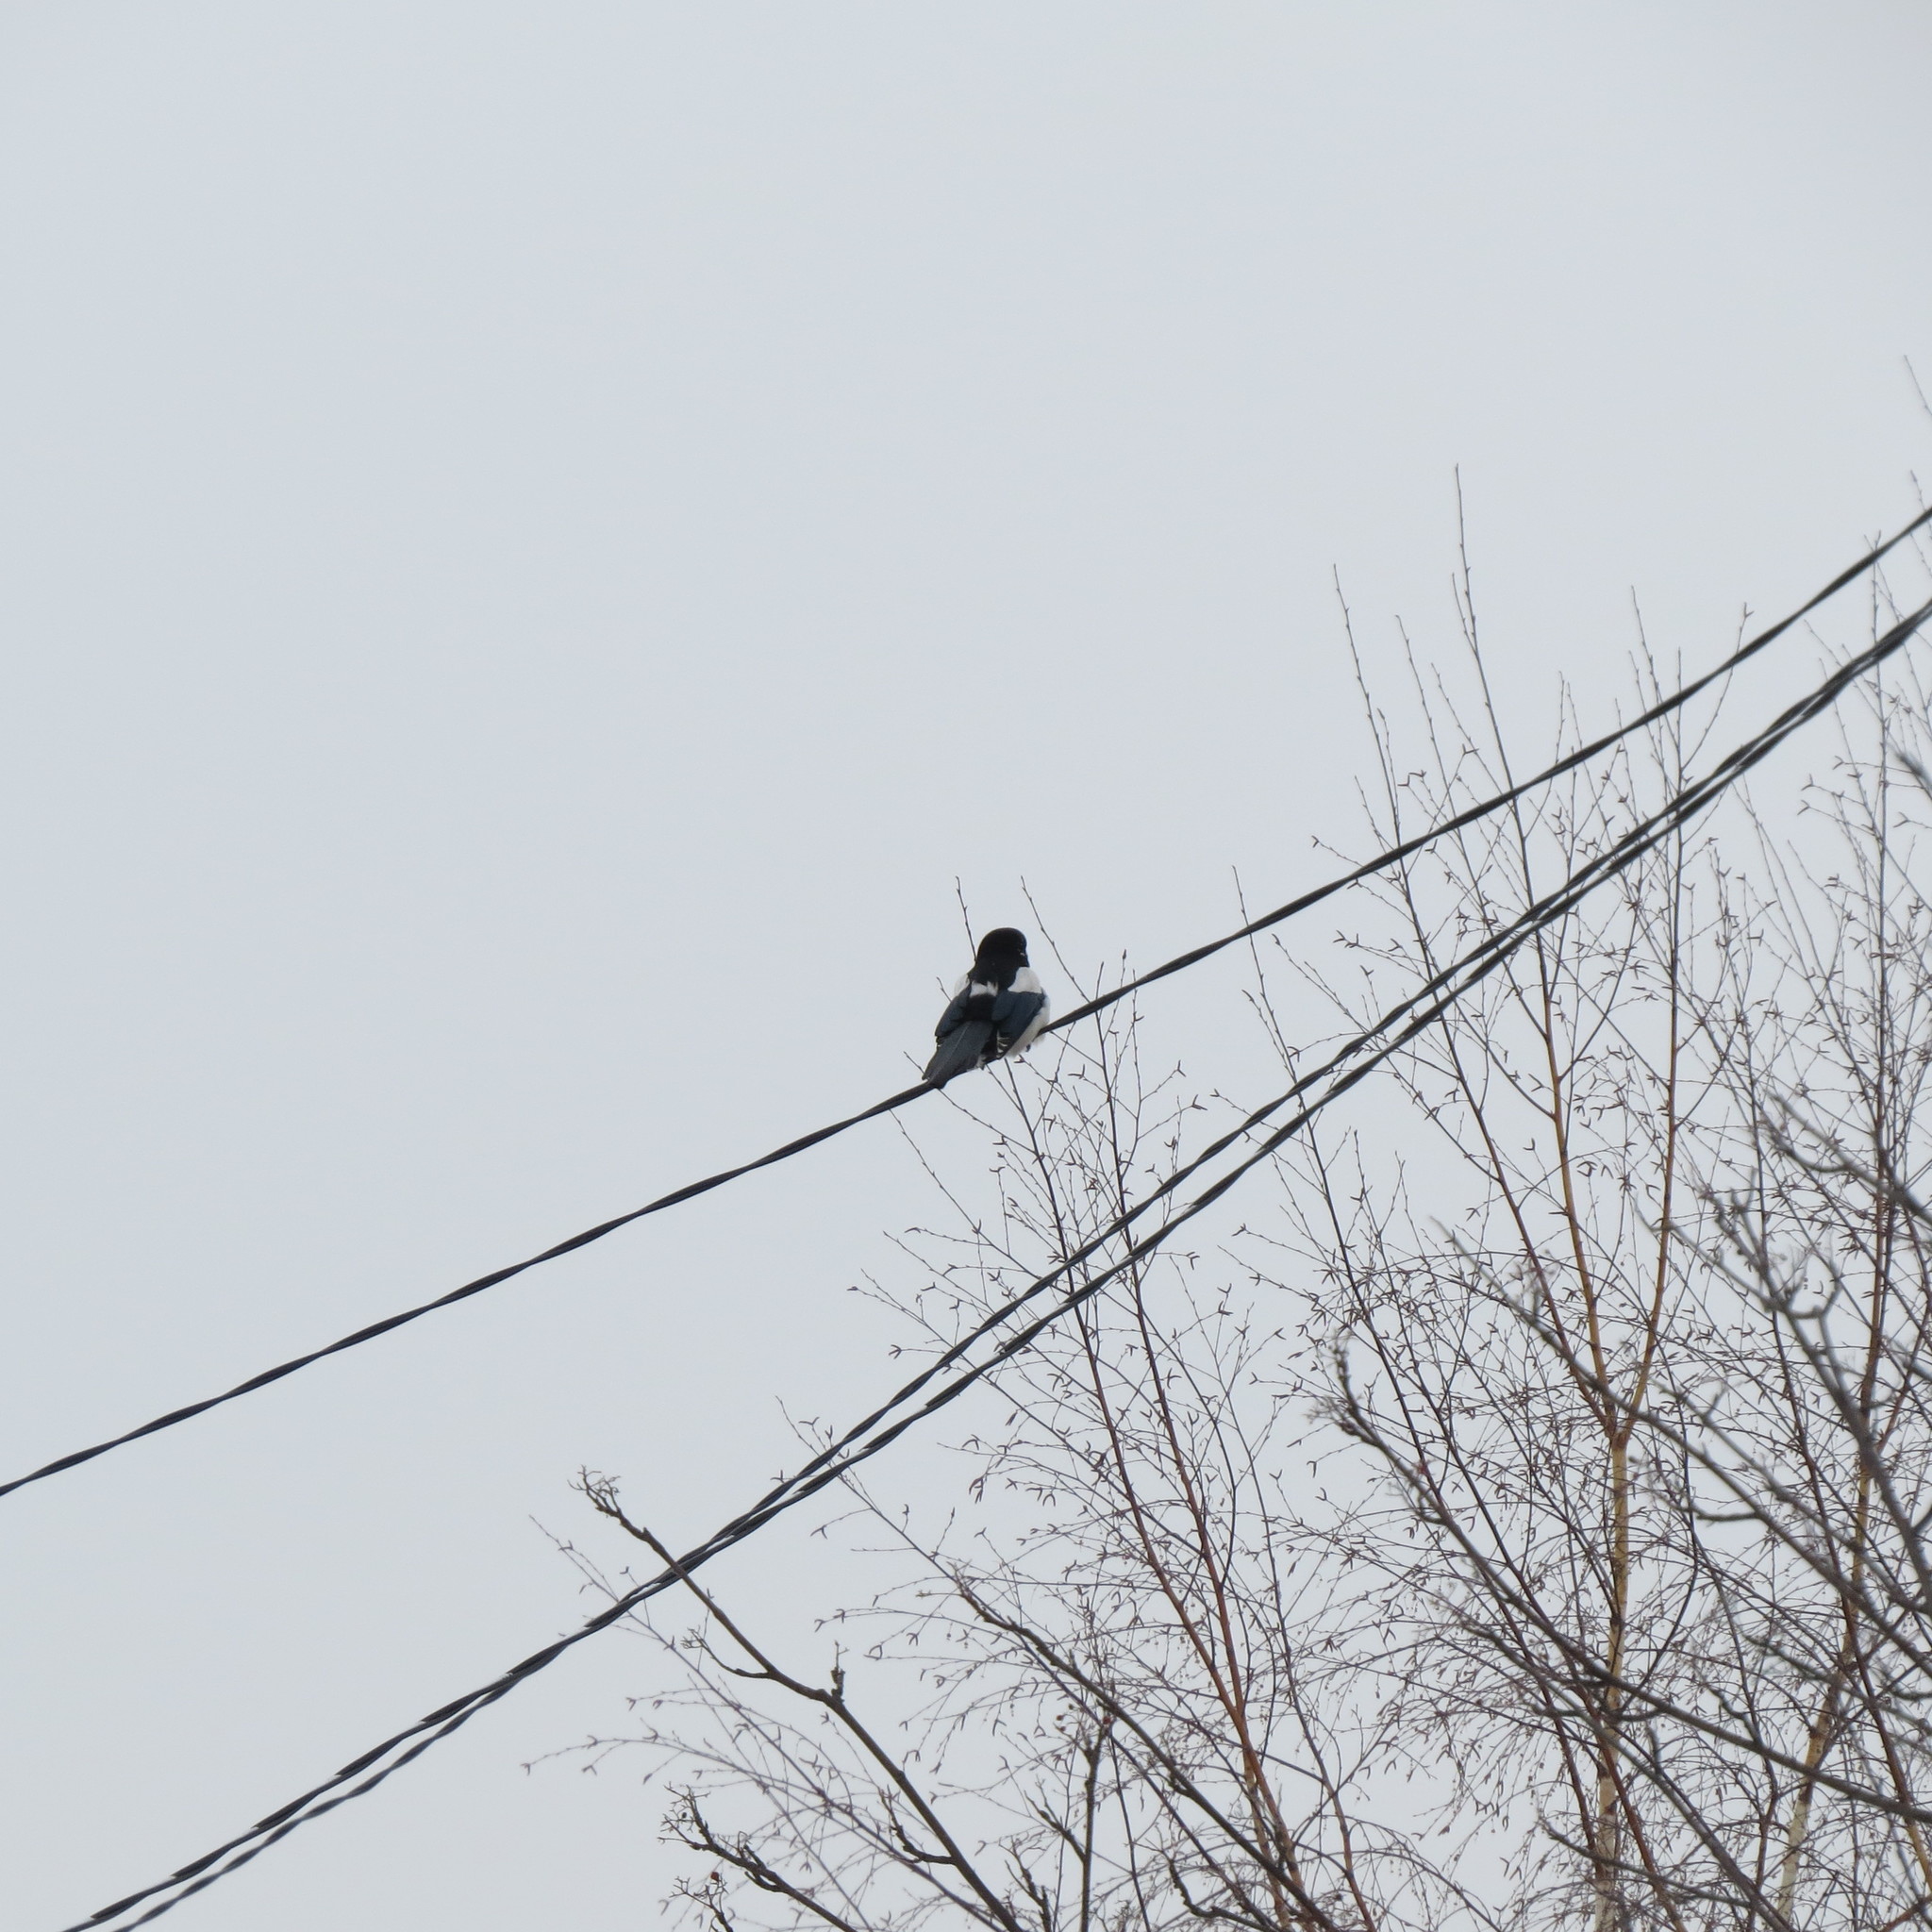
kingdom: Animalia
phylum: Chordata
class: Aves
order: Passeriformes
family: Corvidae
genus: Pica
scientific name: Pica pica
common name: Eurasian magpie
